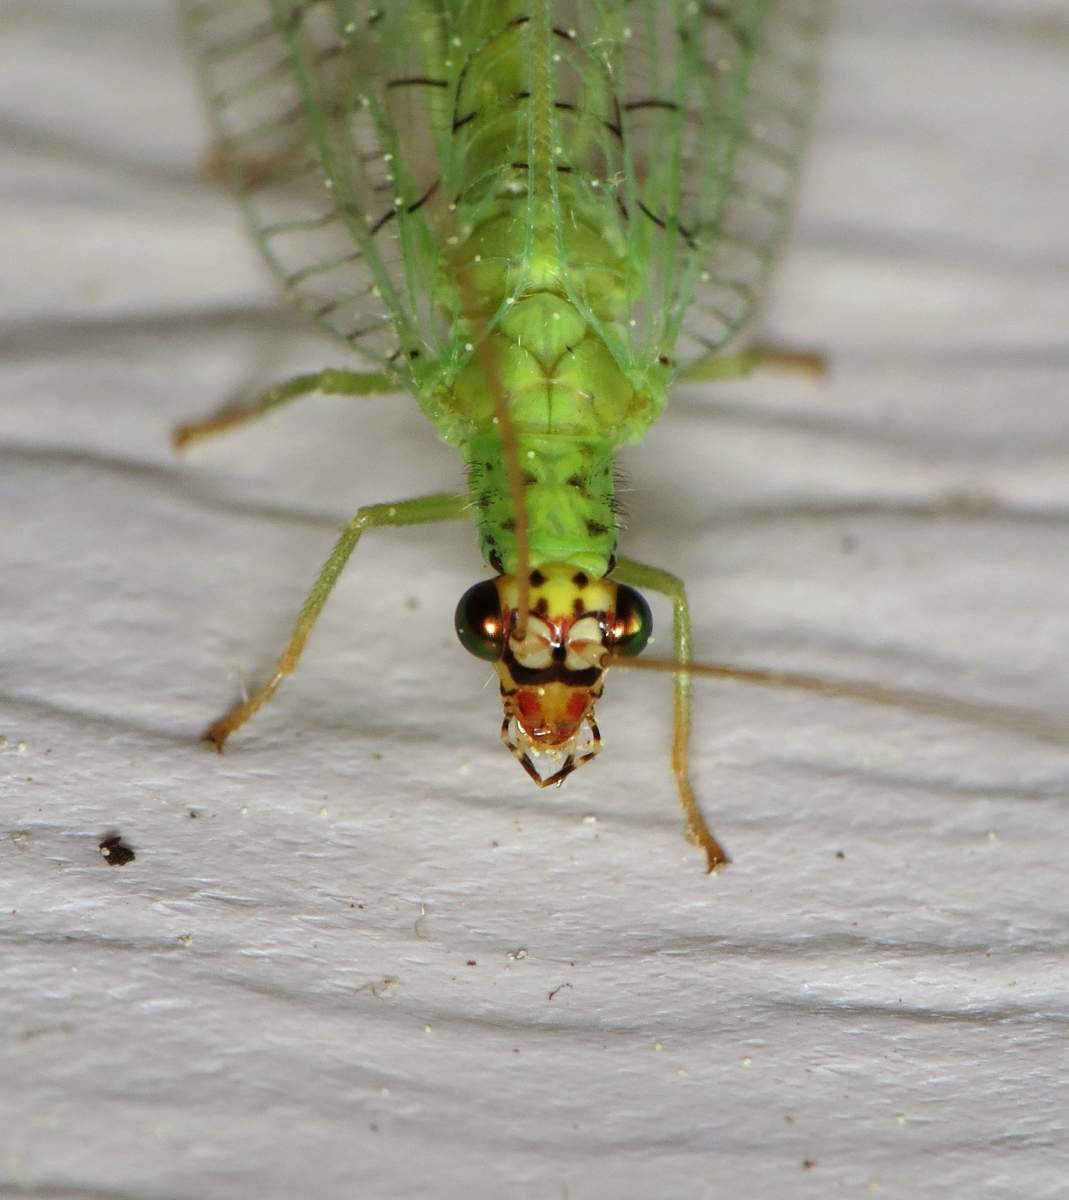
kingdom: Animalia
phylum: Arthropoda
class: Insecta
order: Neuroptera
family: Chrysopidae
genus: Chrysopa
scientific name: Chrysopa oculata
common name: Golden-eyed lacewing
